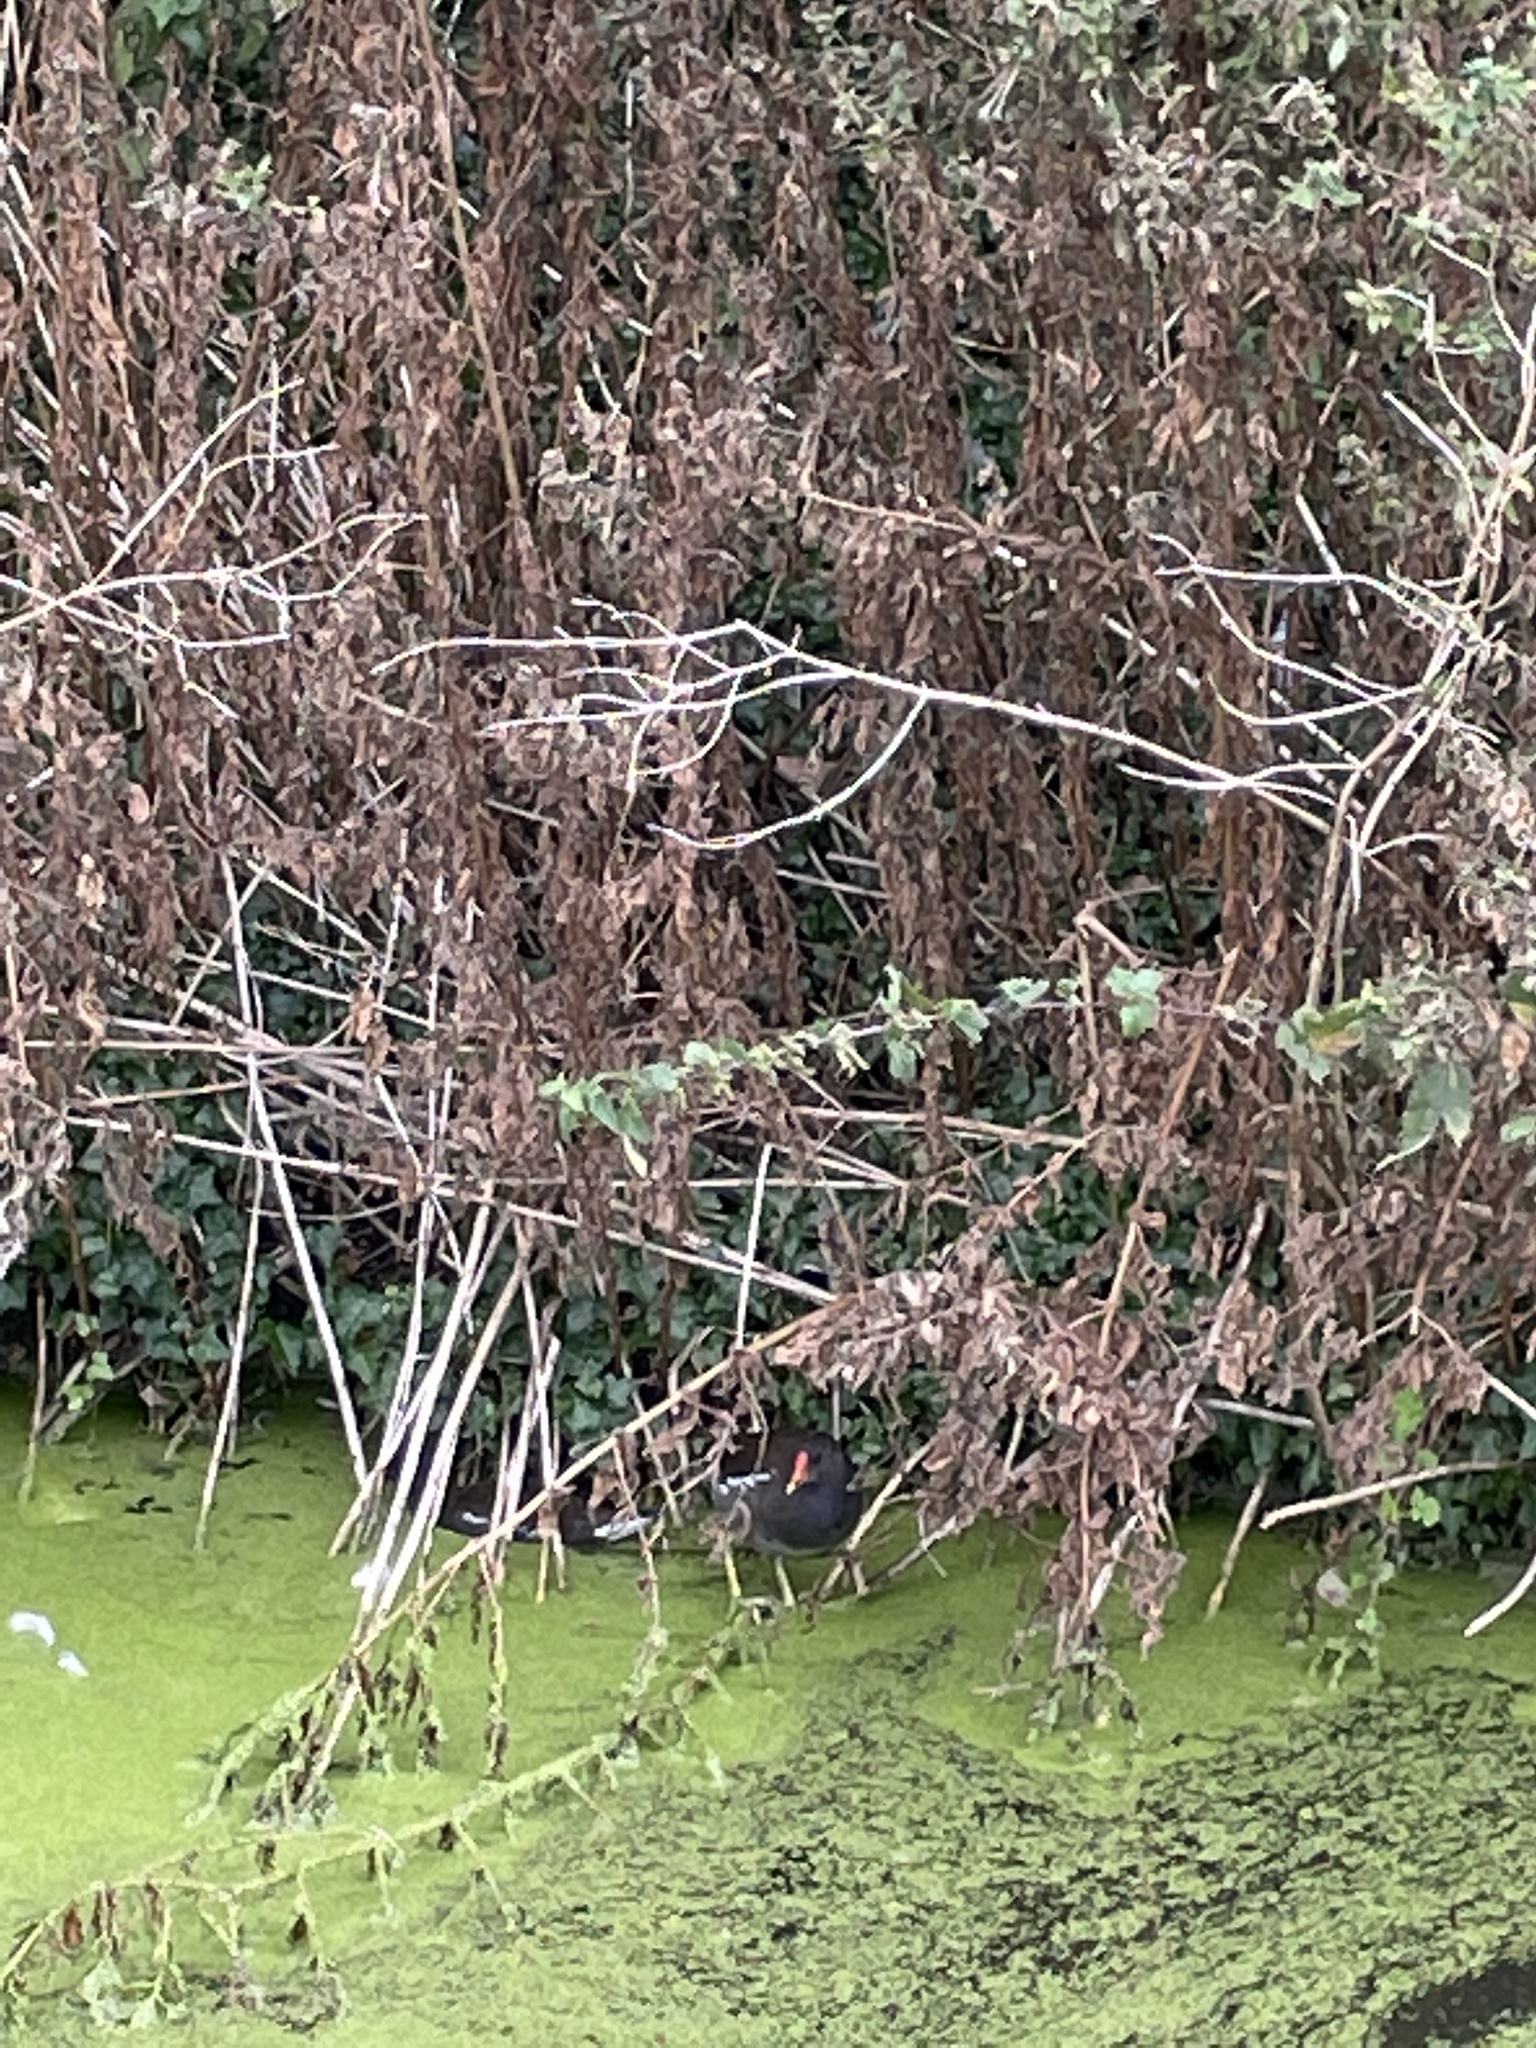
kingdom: Animalia
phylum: Chordata
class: Aves
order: Gruiformes
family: Rallidae
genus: Gallinula
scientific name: Gallinula chloropus
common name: Common moorhen
